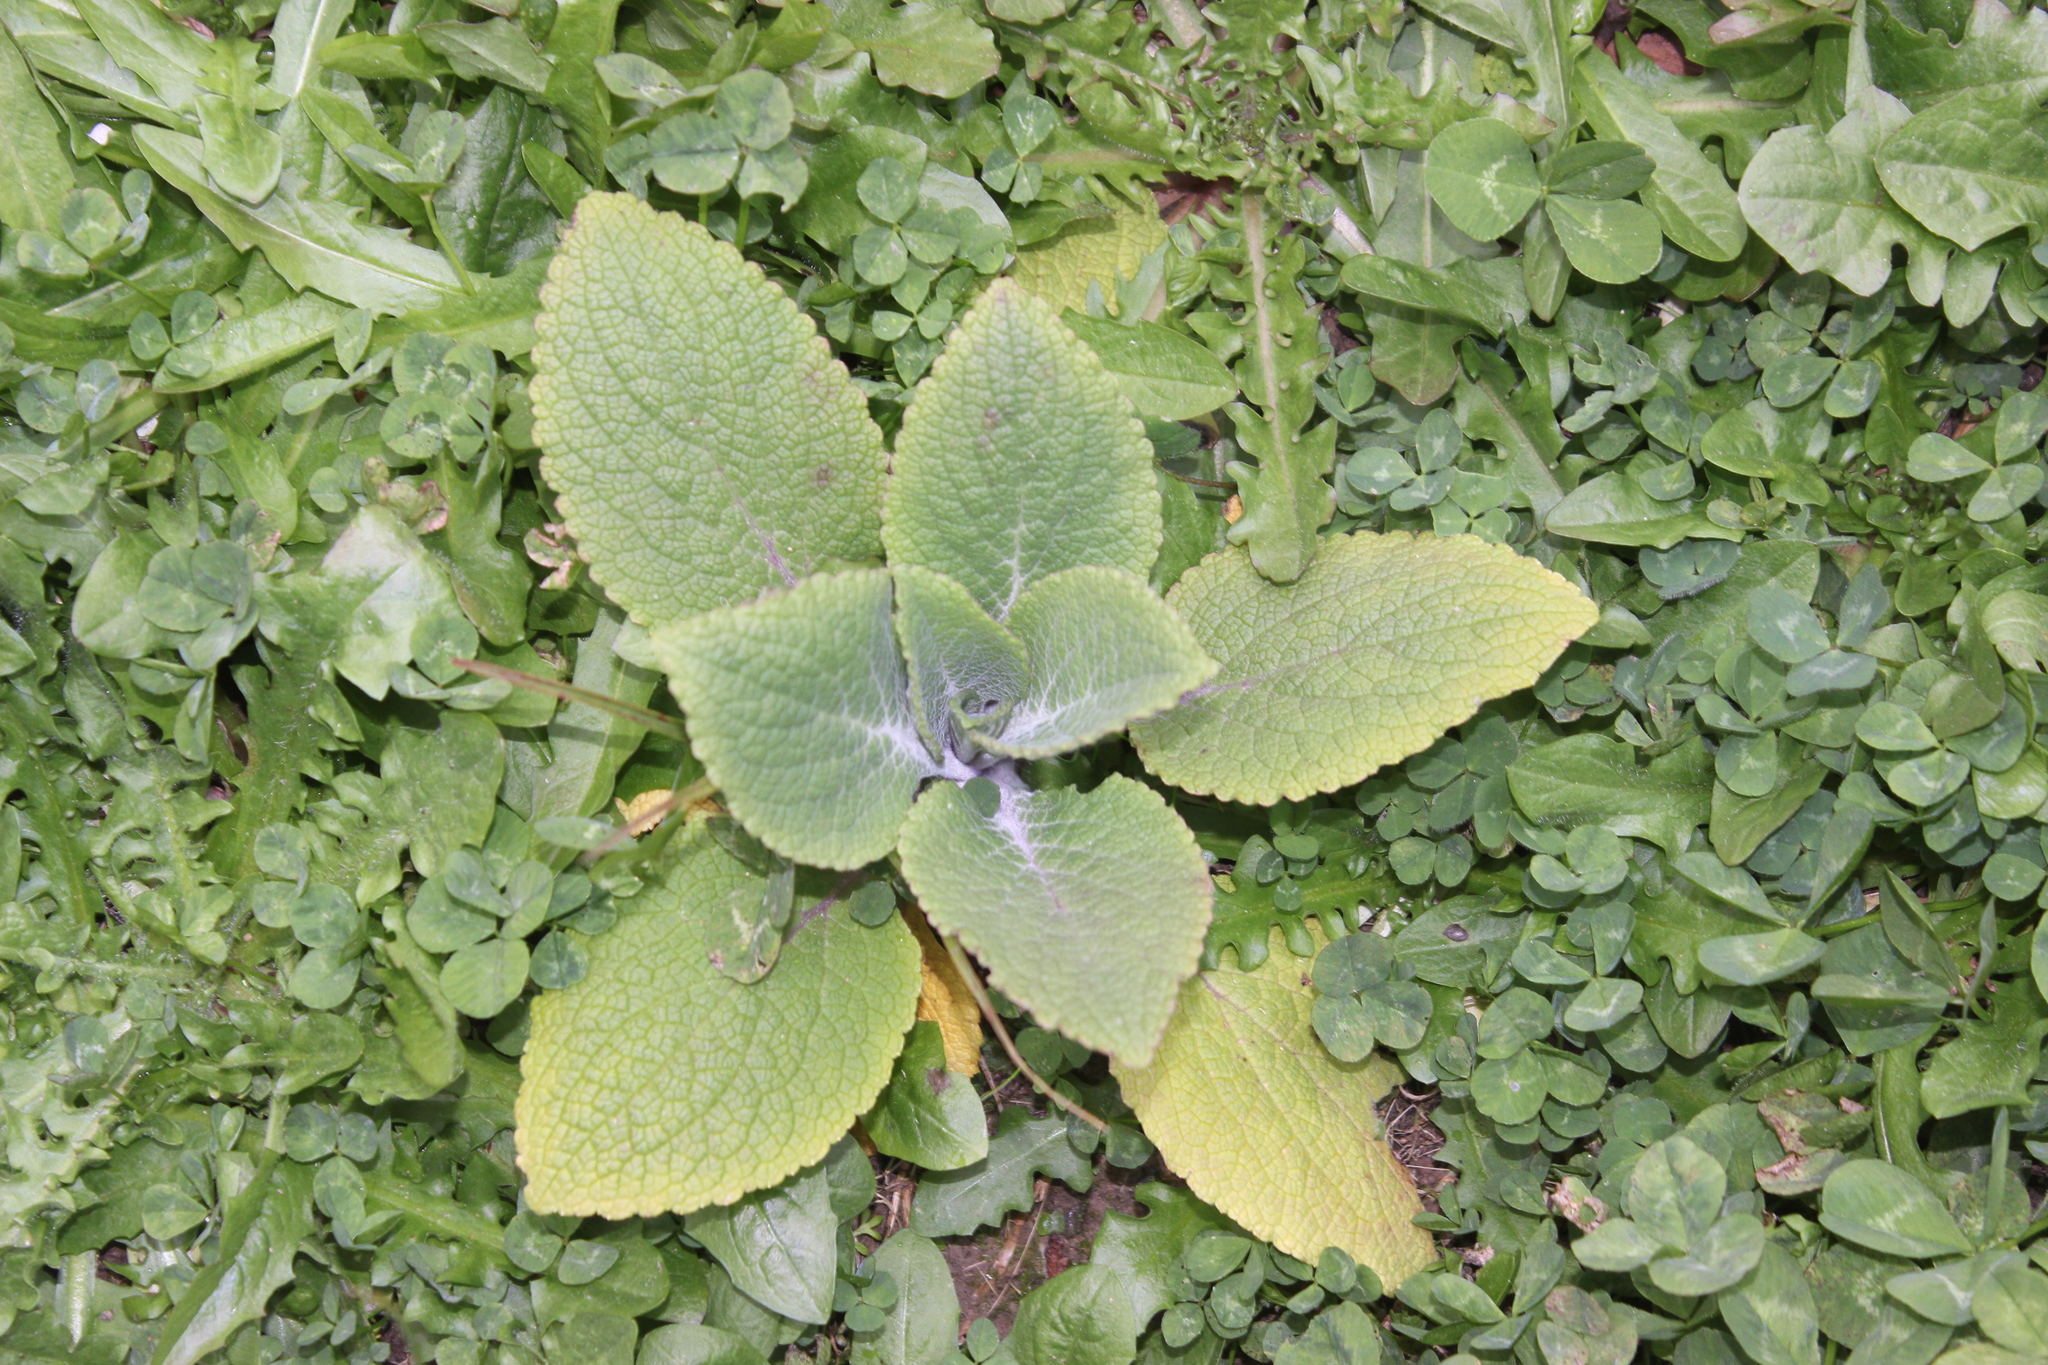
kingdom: Plantae
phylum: Tracheophyta
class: Magnoliopsida
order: Lamiales
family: Plantaginaceae
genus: Digitalis
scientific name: Digitalis purpurea
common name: Foxglove
